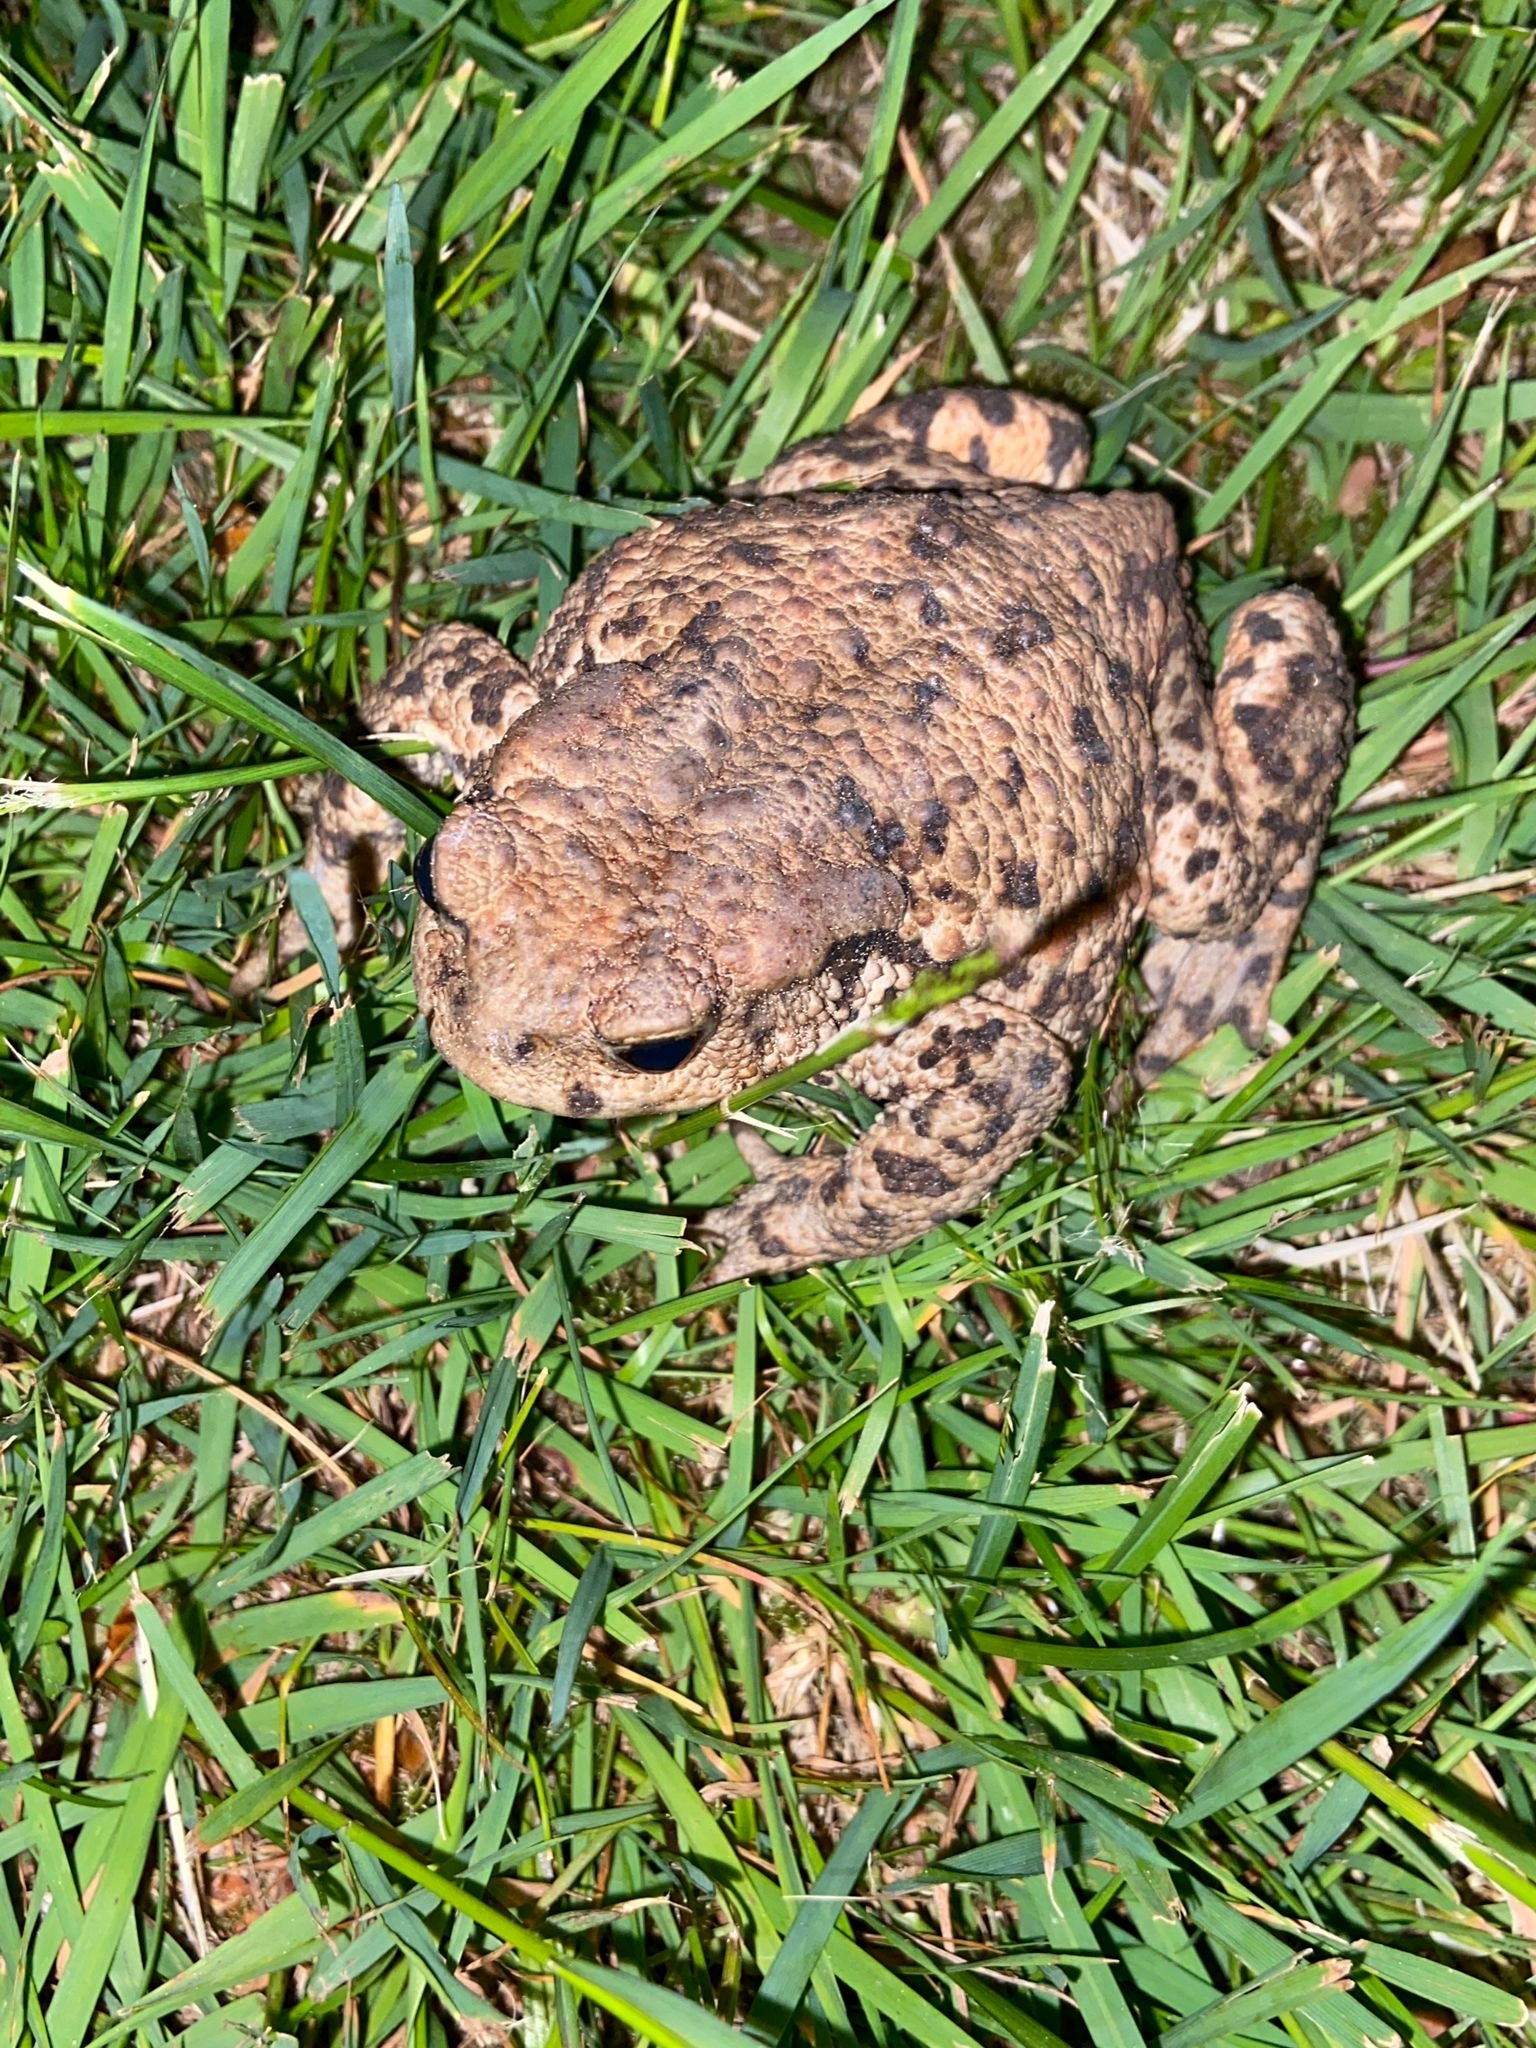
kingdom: Animalia
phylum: Chordata
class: Amphibia
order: Anura
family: Bufonidae
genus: Bufo
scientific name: Bufo bufo
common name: Common toad
